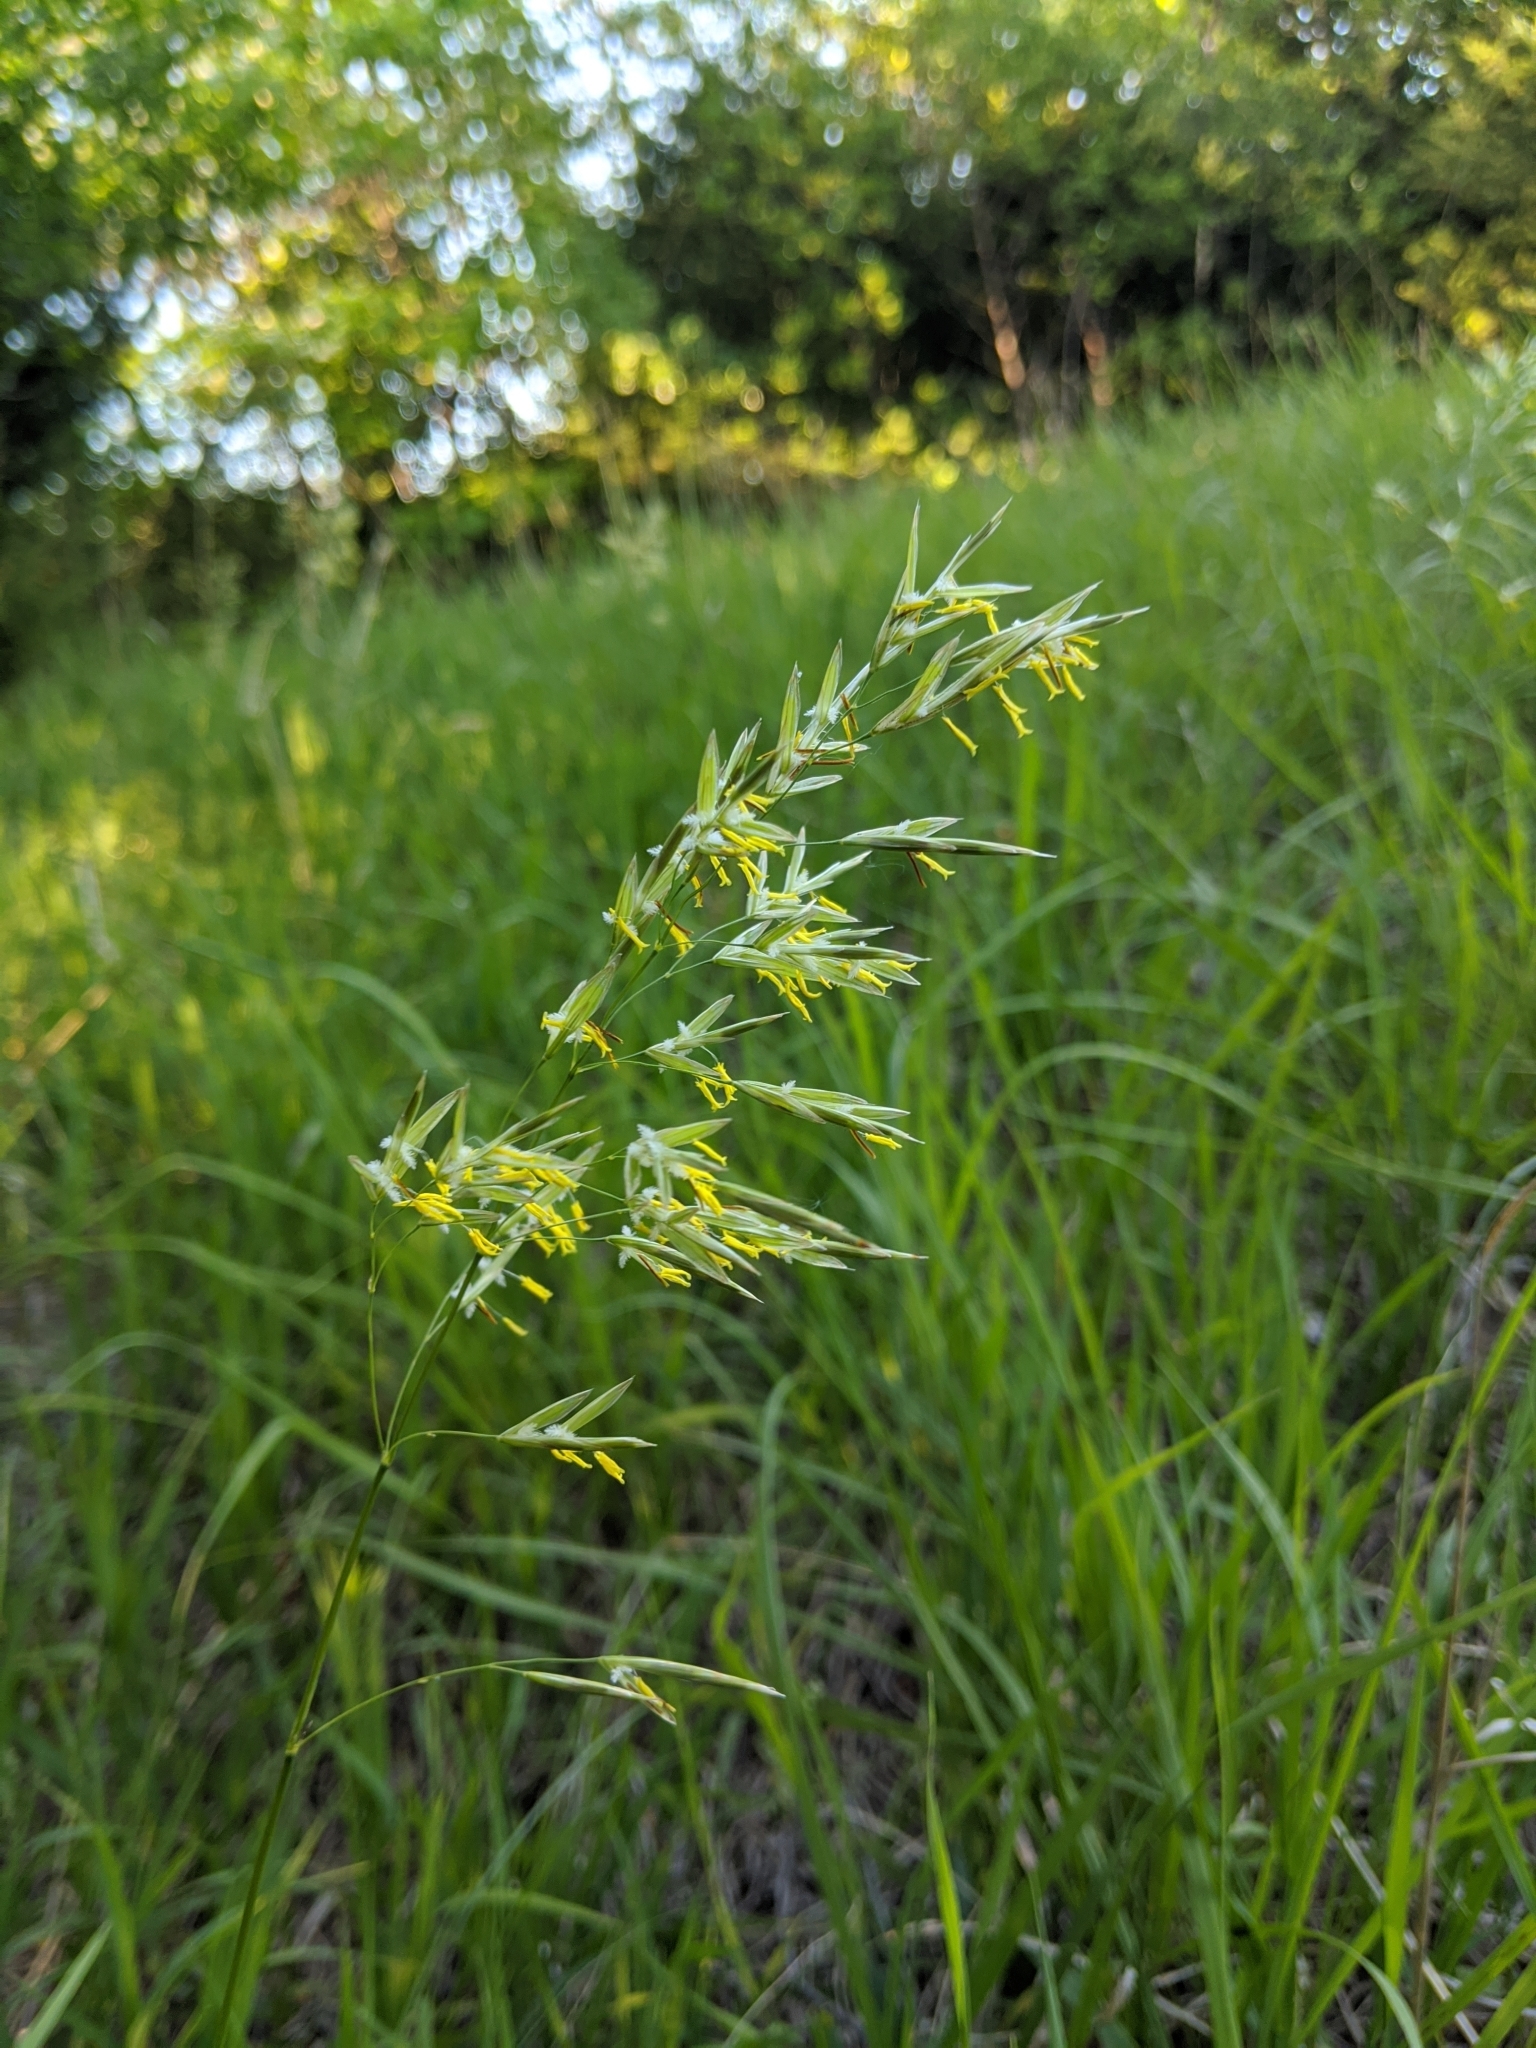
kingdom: Plantae
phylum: Tracheophyta
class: Liliopsida
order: Poales
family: Poaceae
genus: Bromus
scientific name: Bromus inermis
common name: Smooth brome
